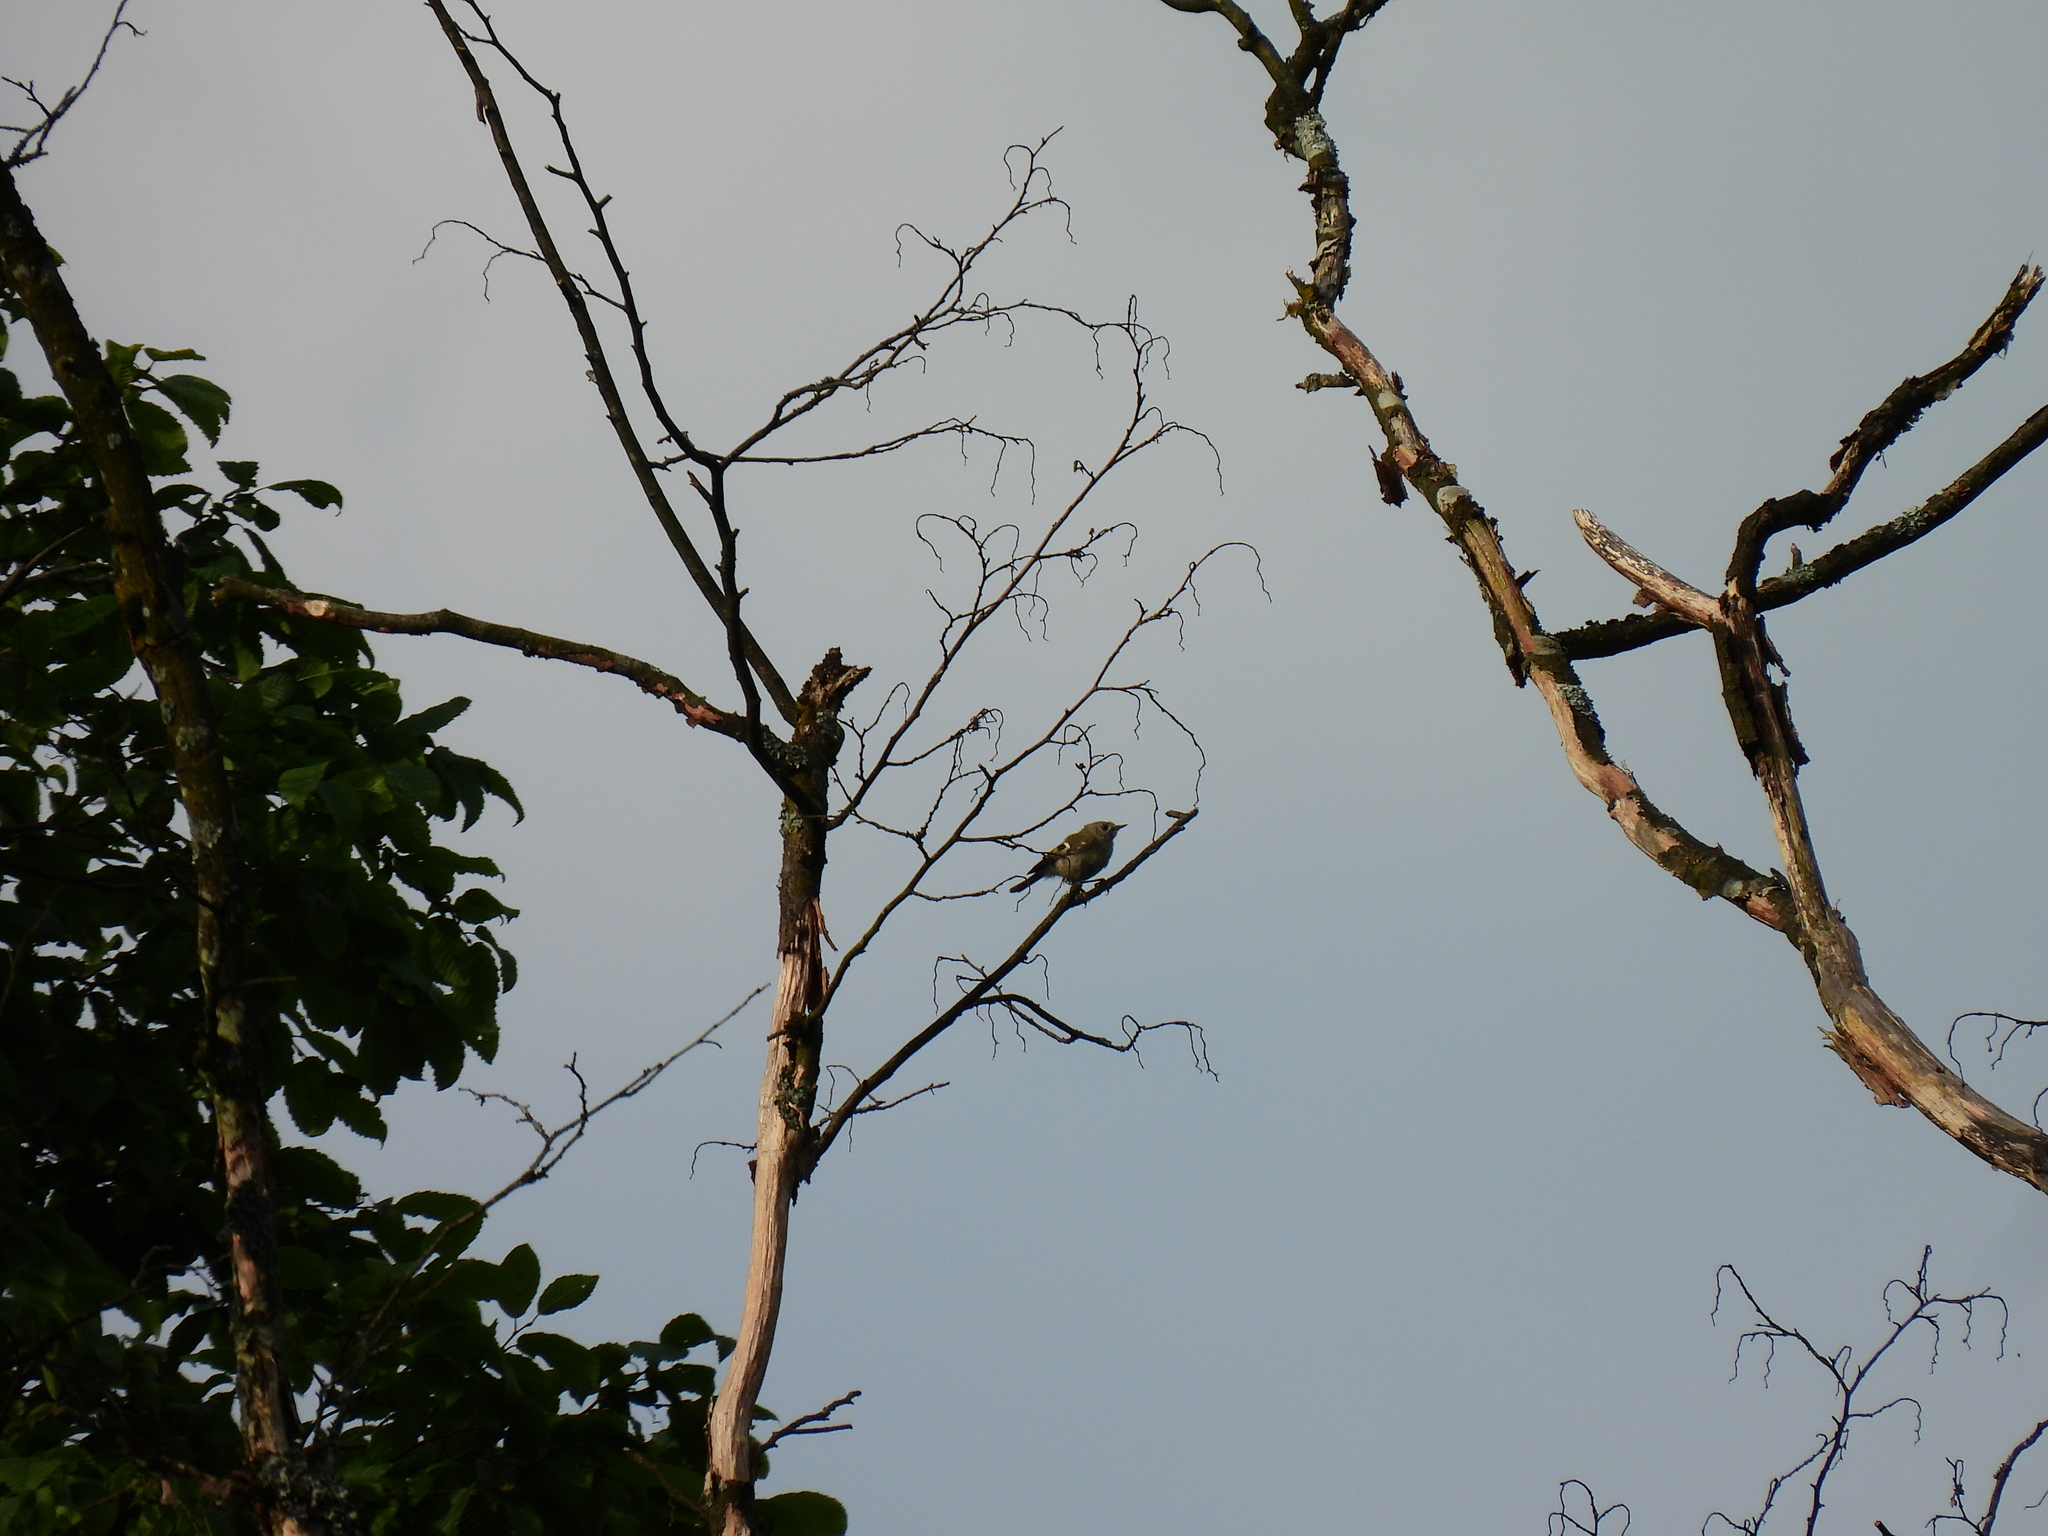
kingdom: Animalia
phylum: Chordata
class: Aves
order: Passeriformes
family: Regulidae
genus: Regulus
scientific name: Regulus regulus
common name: Goldcrest
